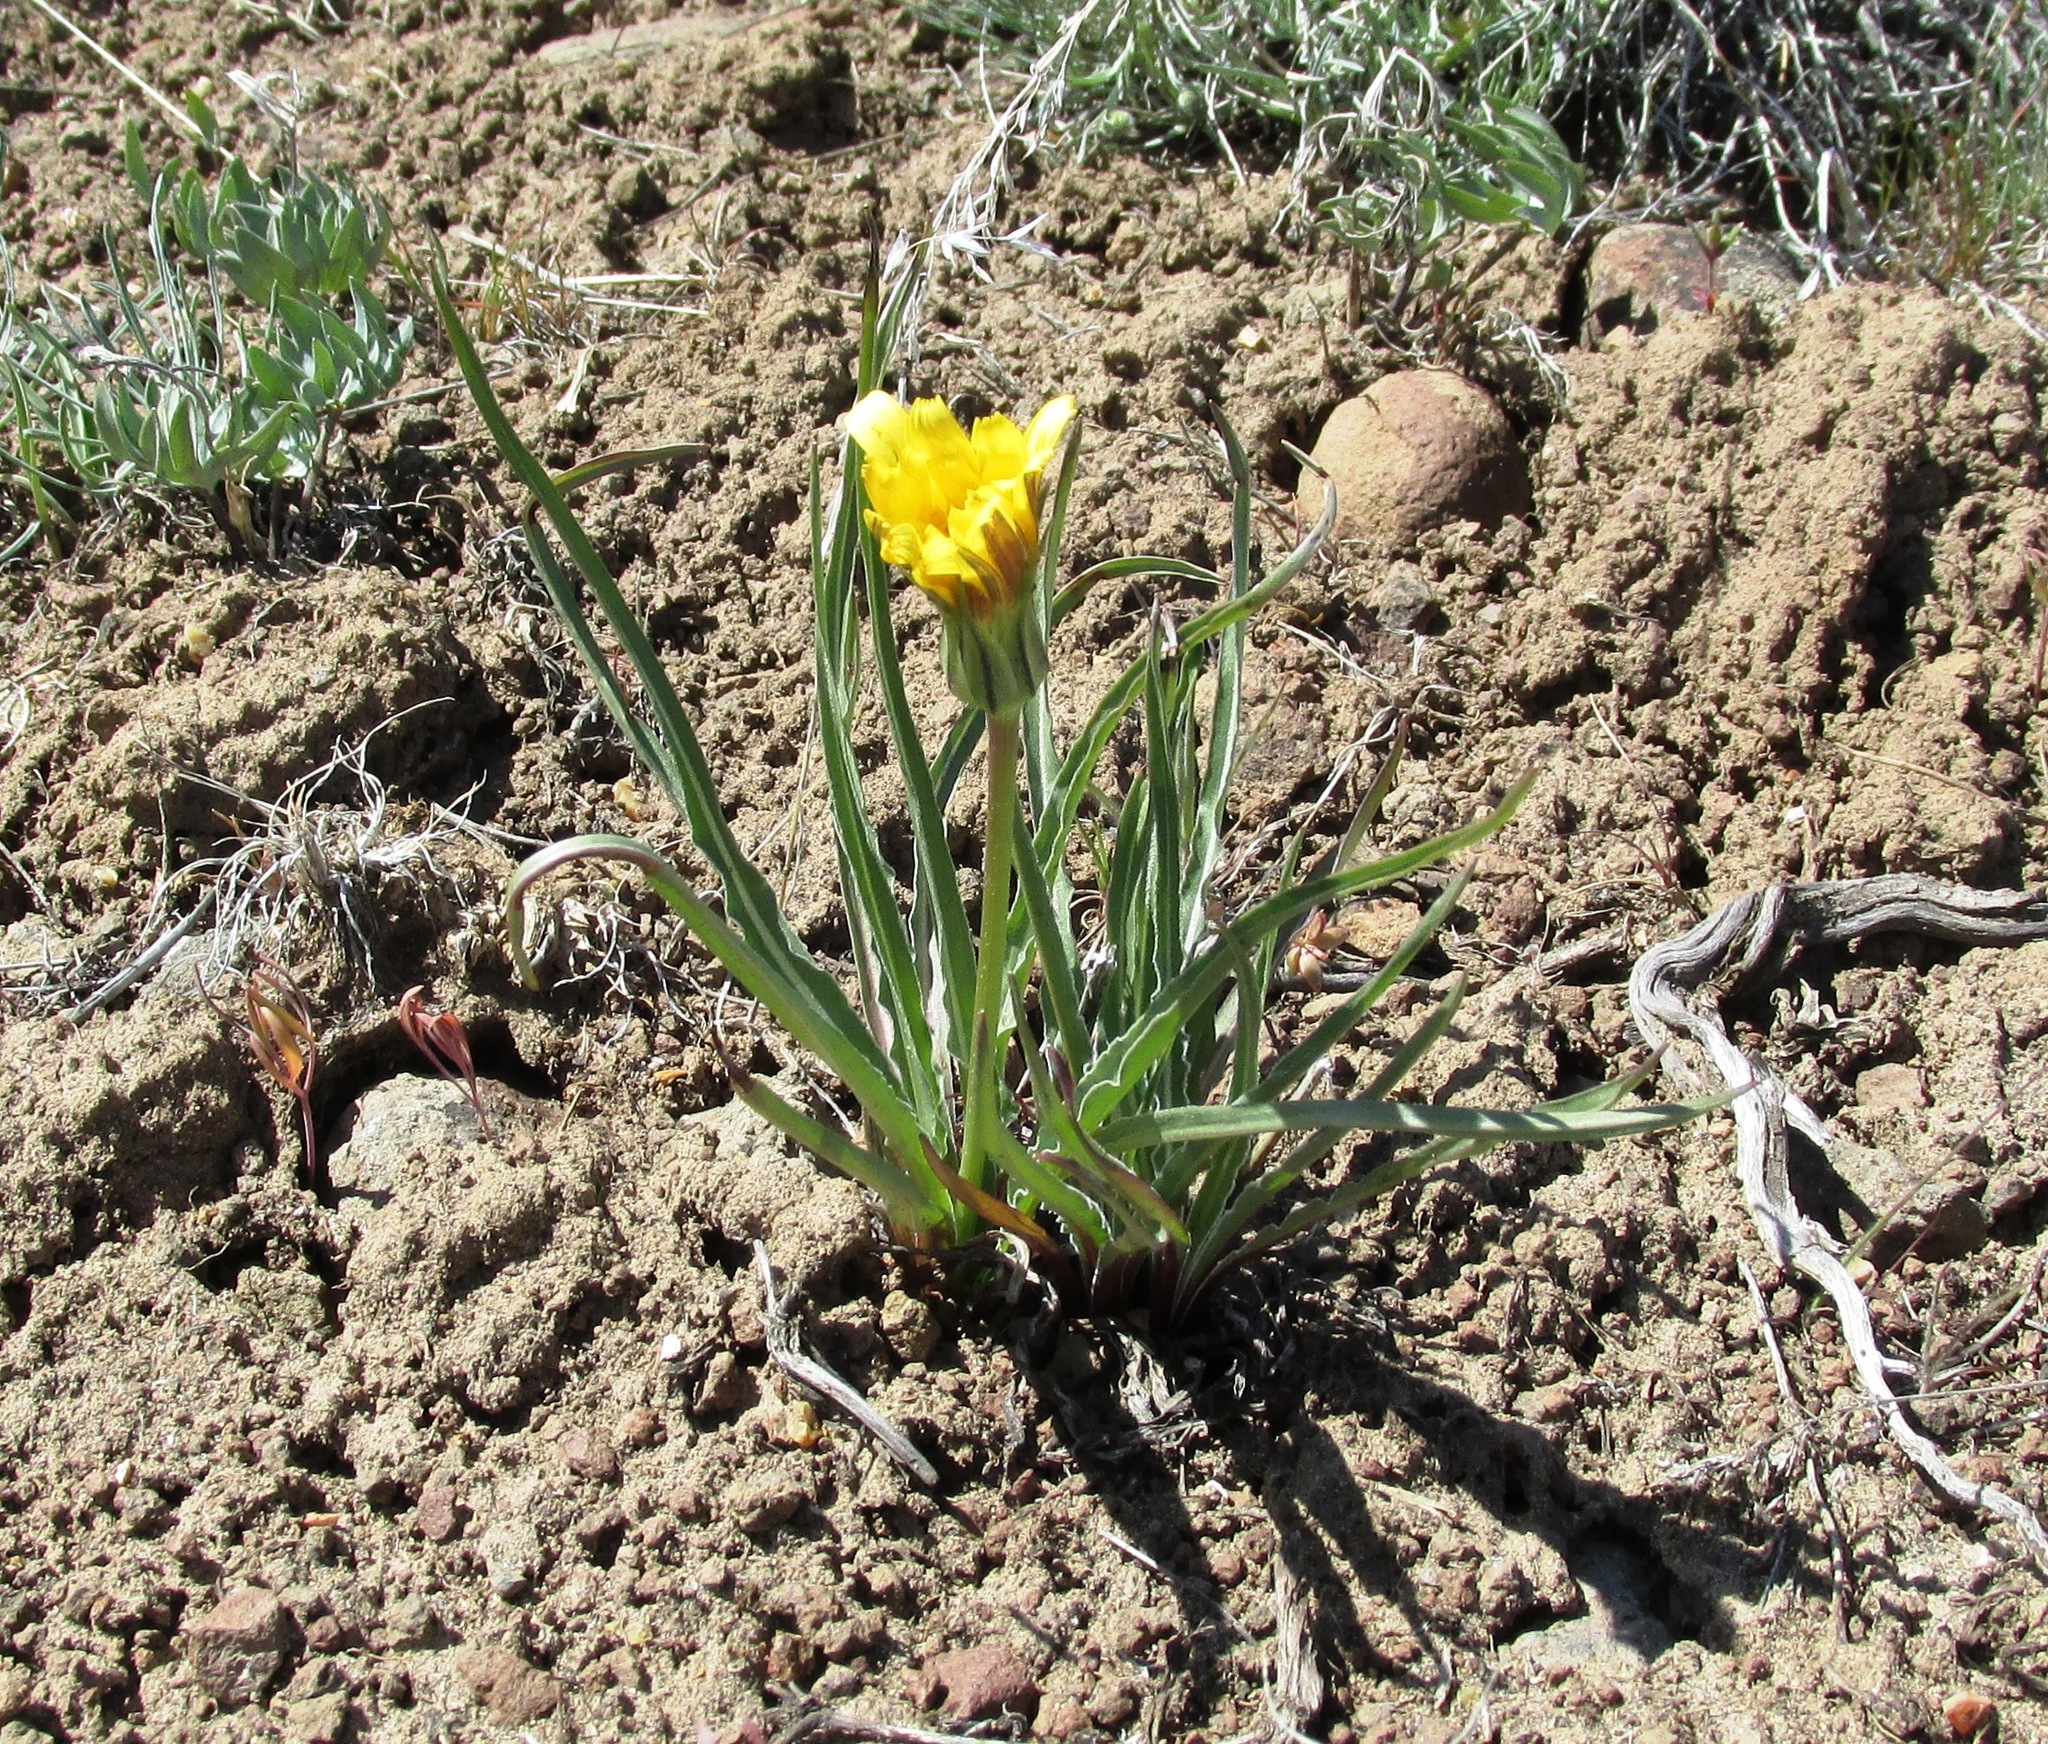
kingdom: Plantae
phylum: Tracheophyta
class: Magnoliopsida
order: Asterales
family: Asteraceae
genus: Microseris
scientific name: Microseris troximoides
